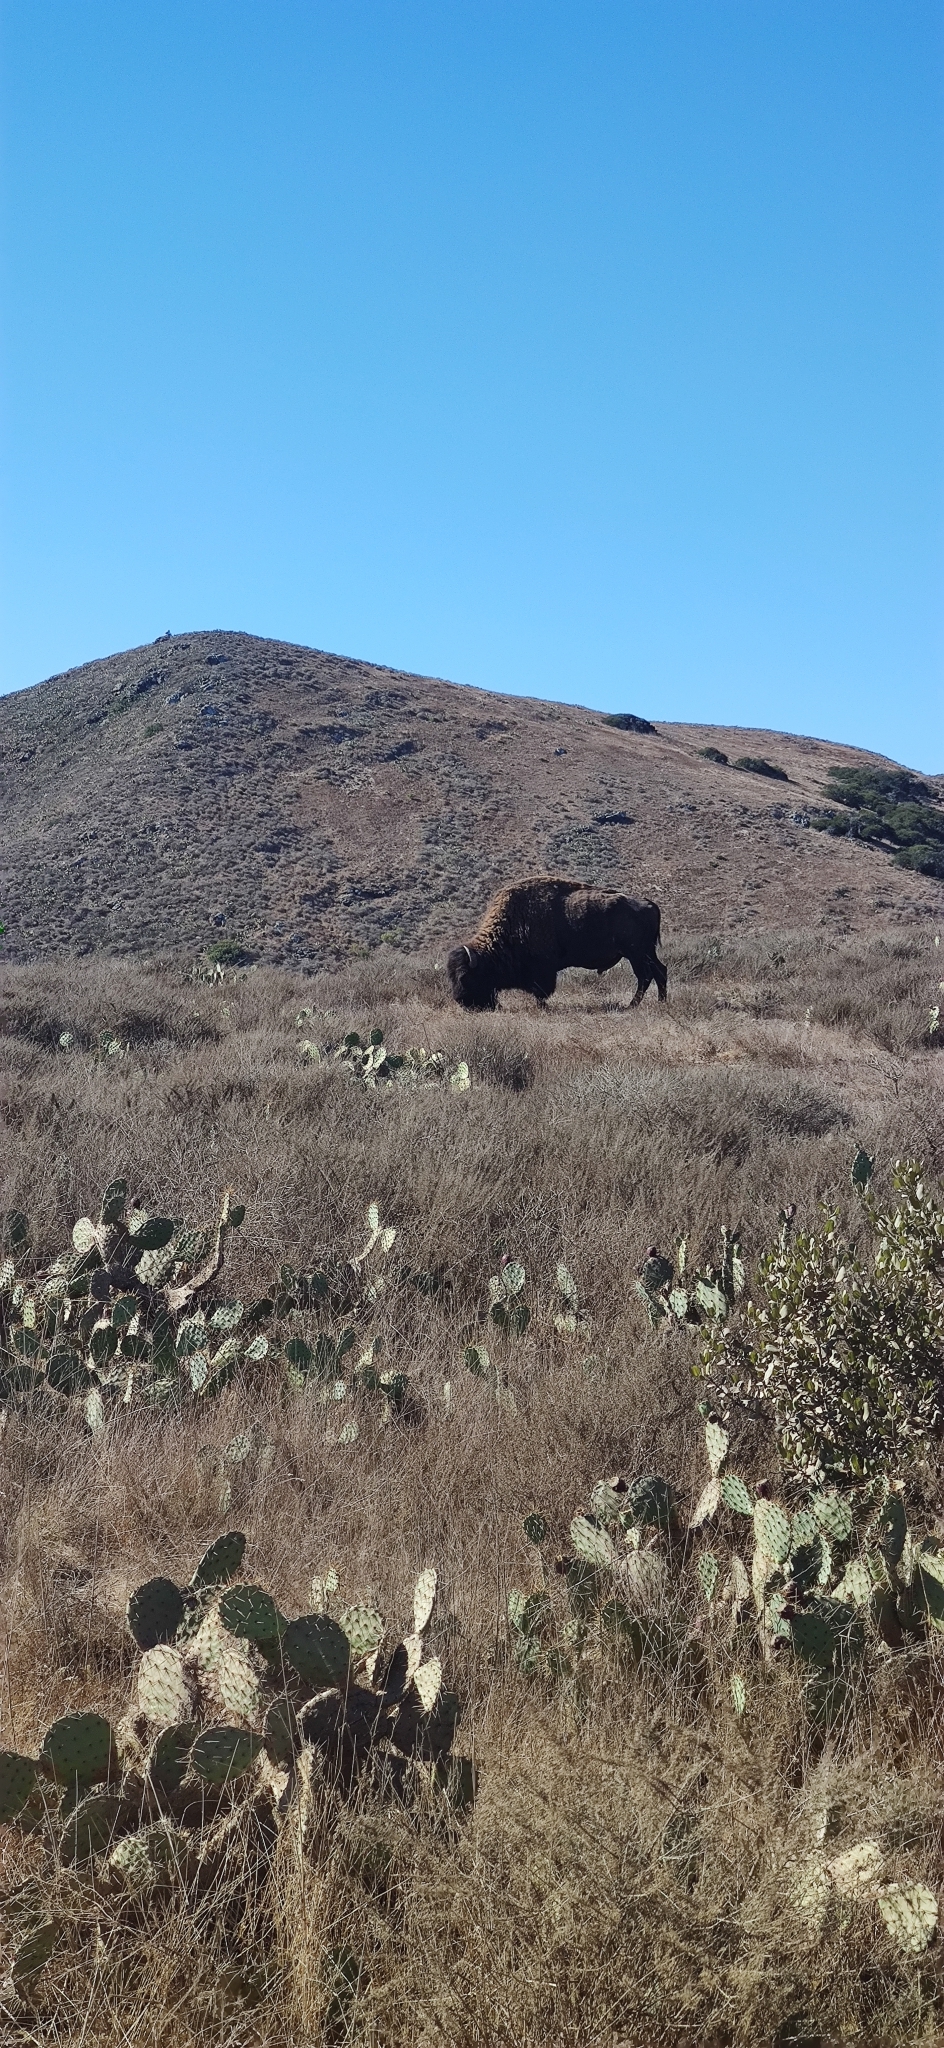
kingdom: Animalia
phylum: Chordata
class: Mammalia
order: Artiodactyla
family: Bovidae
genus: Bison
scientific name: Bison bison
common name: American bison
